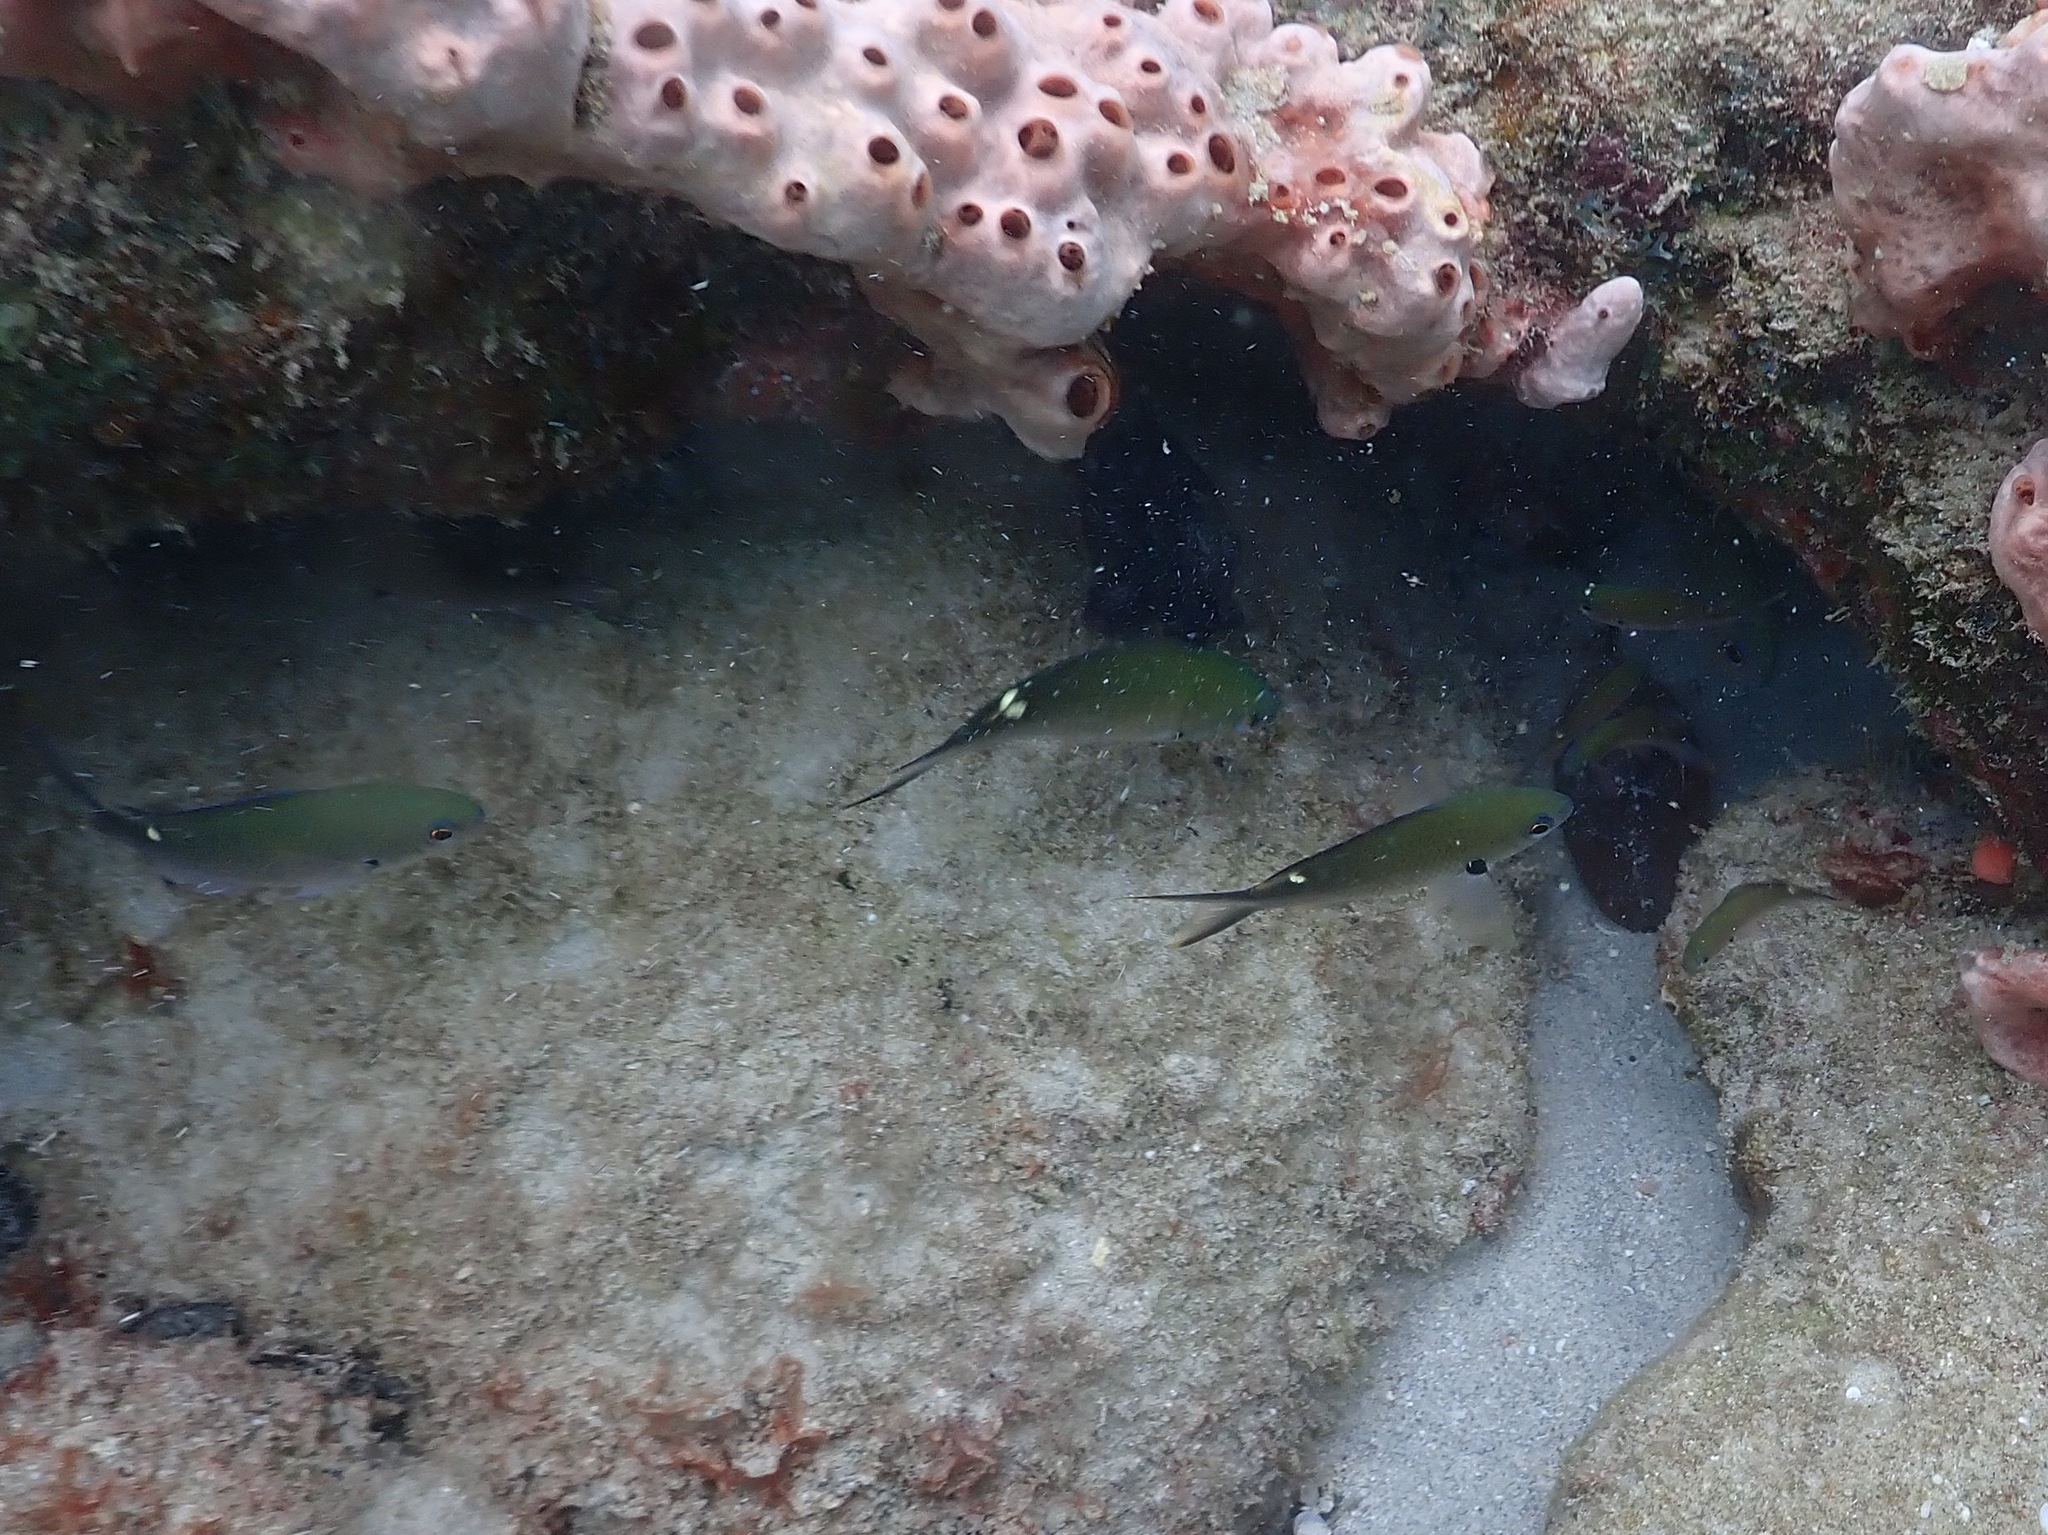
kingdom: Animalia
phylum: Chordata
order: Perciformes
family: Pomacentridae
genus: Chromis
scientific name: Chromis multilineata
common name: Brown chromis
